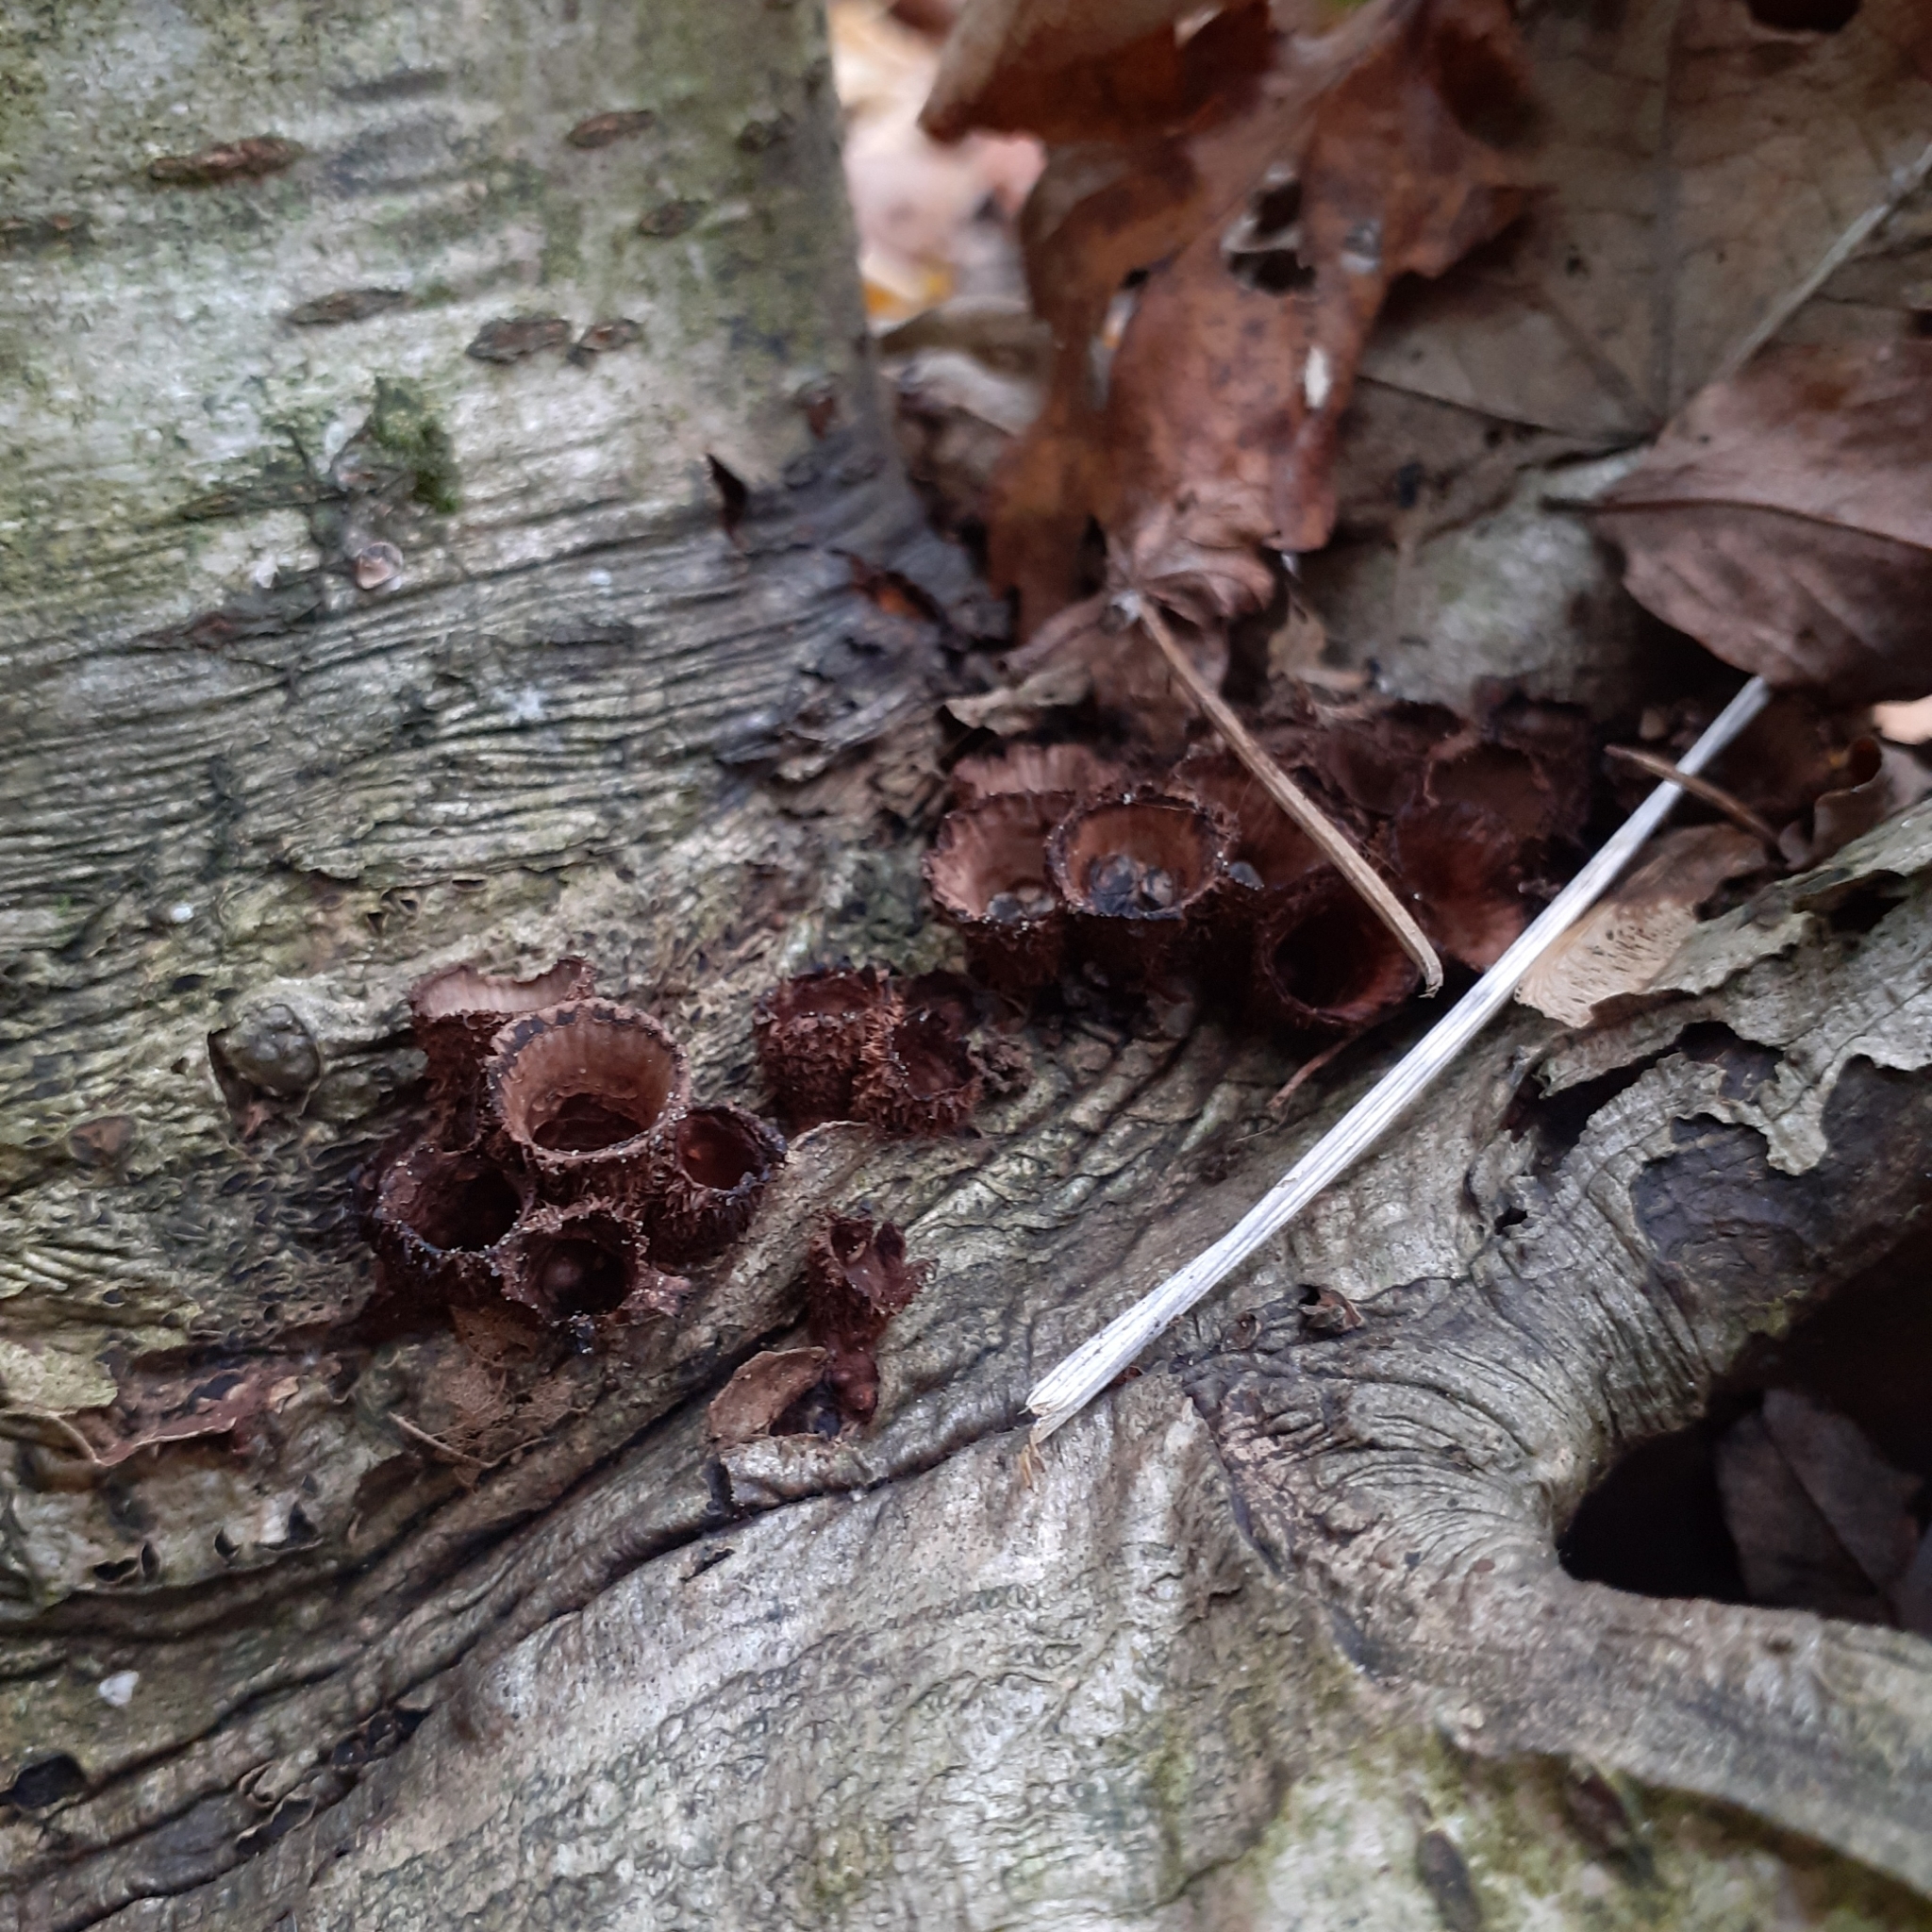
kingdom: Fungi
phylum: Basidiomycota
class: Agaricomycetes
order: Agaricales
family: Agaricaceae
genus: Cyathus
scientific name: Cyathus striatus
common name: Fluted bird's nest
